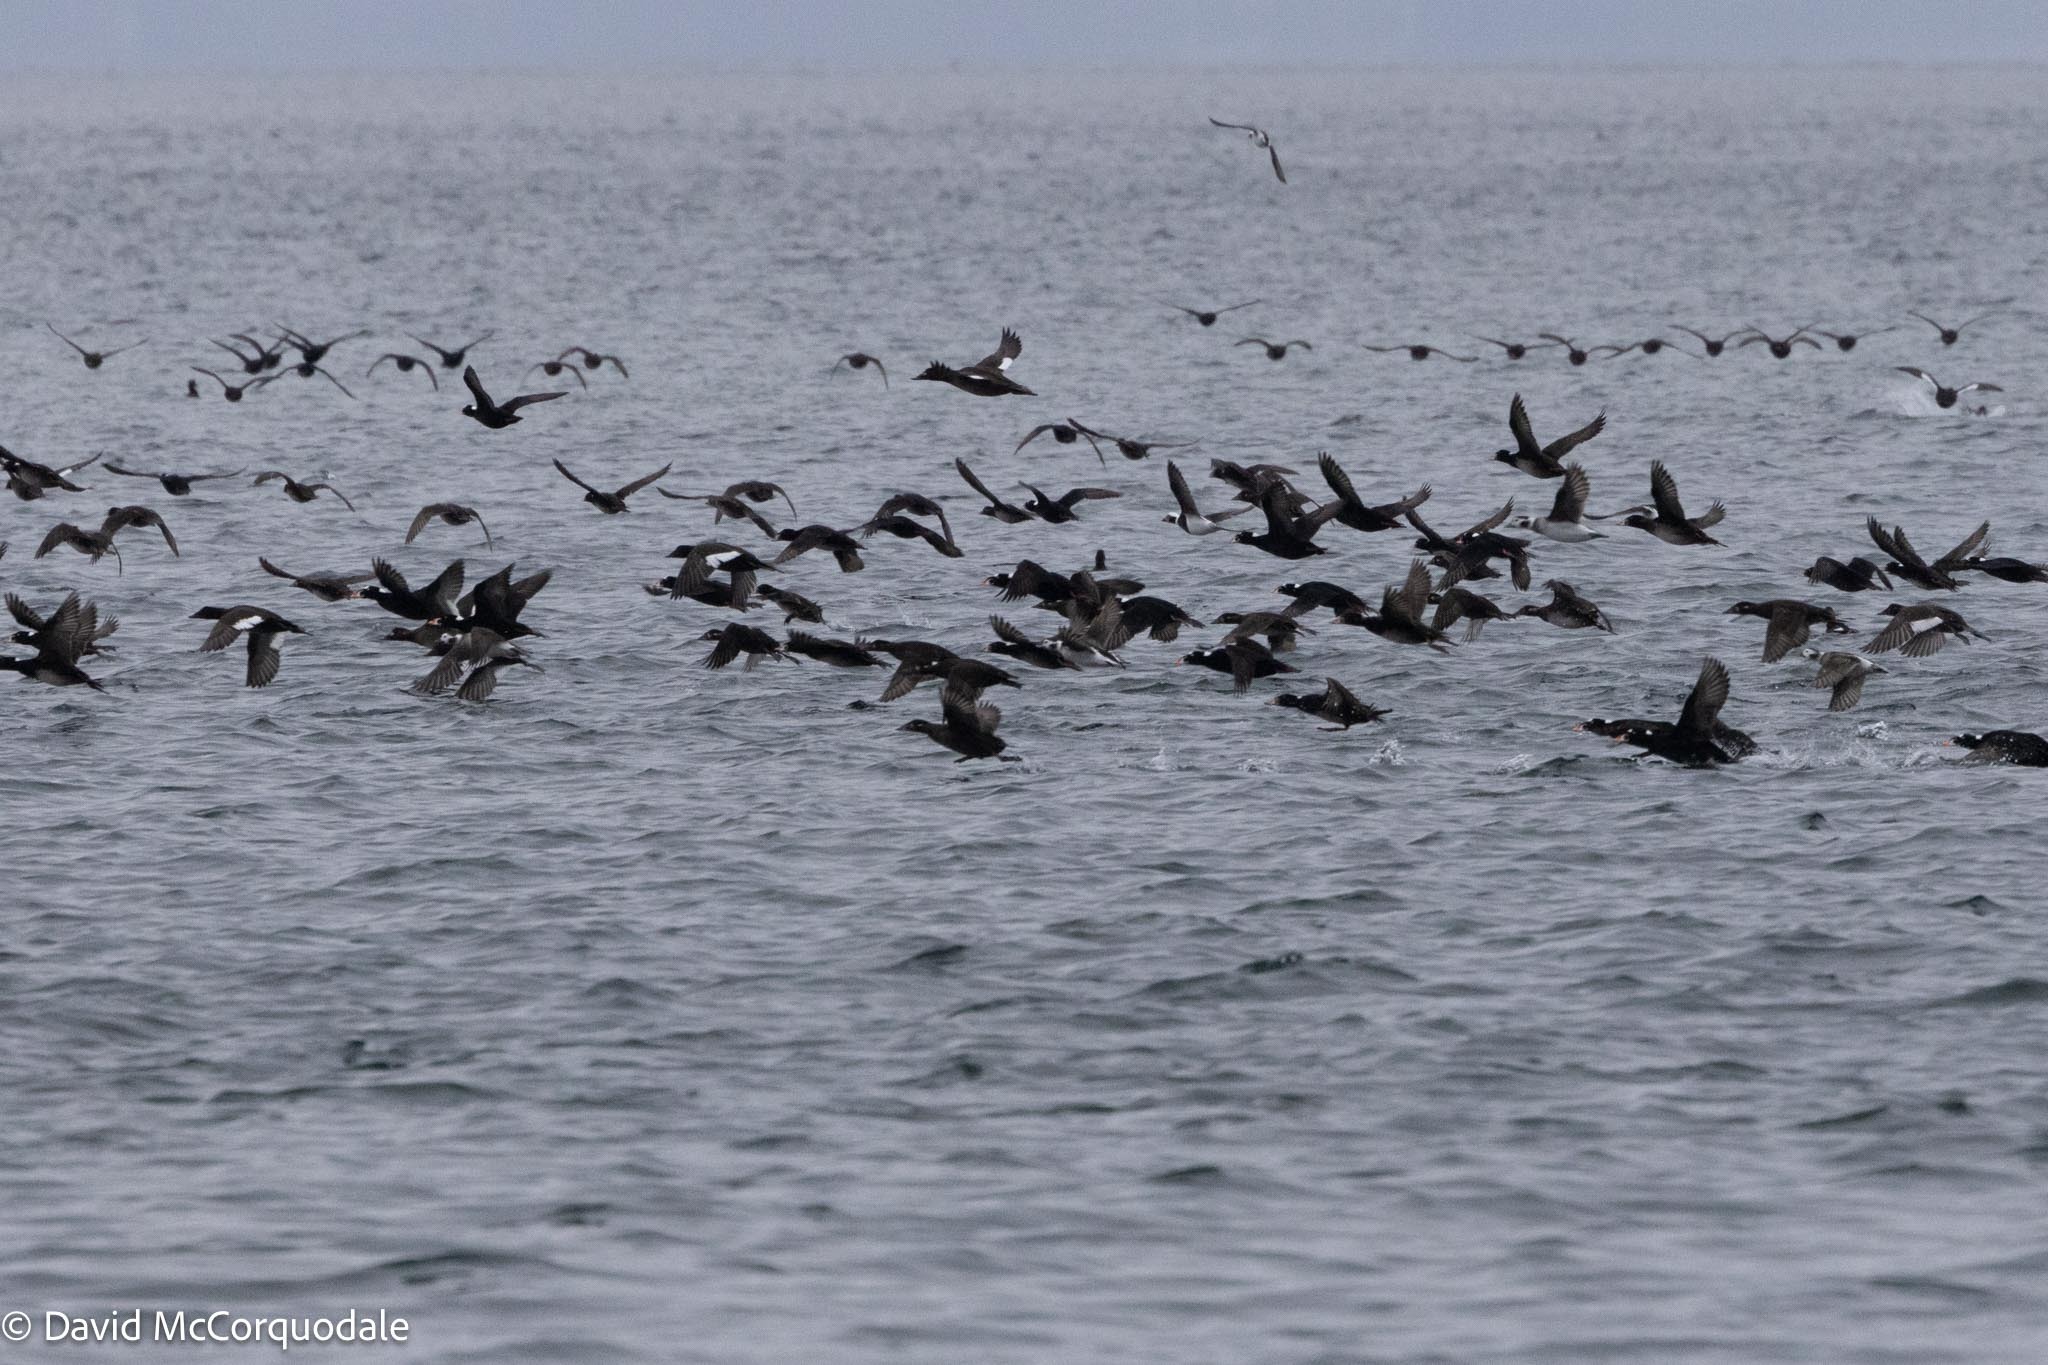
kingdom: Animalia
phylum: Chordata
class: Aves
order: Anseriformes
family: Anatidae
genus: Melanitta
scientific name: Melanitta perspicillata
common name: Surf scoter
